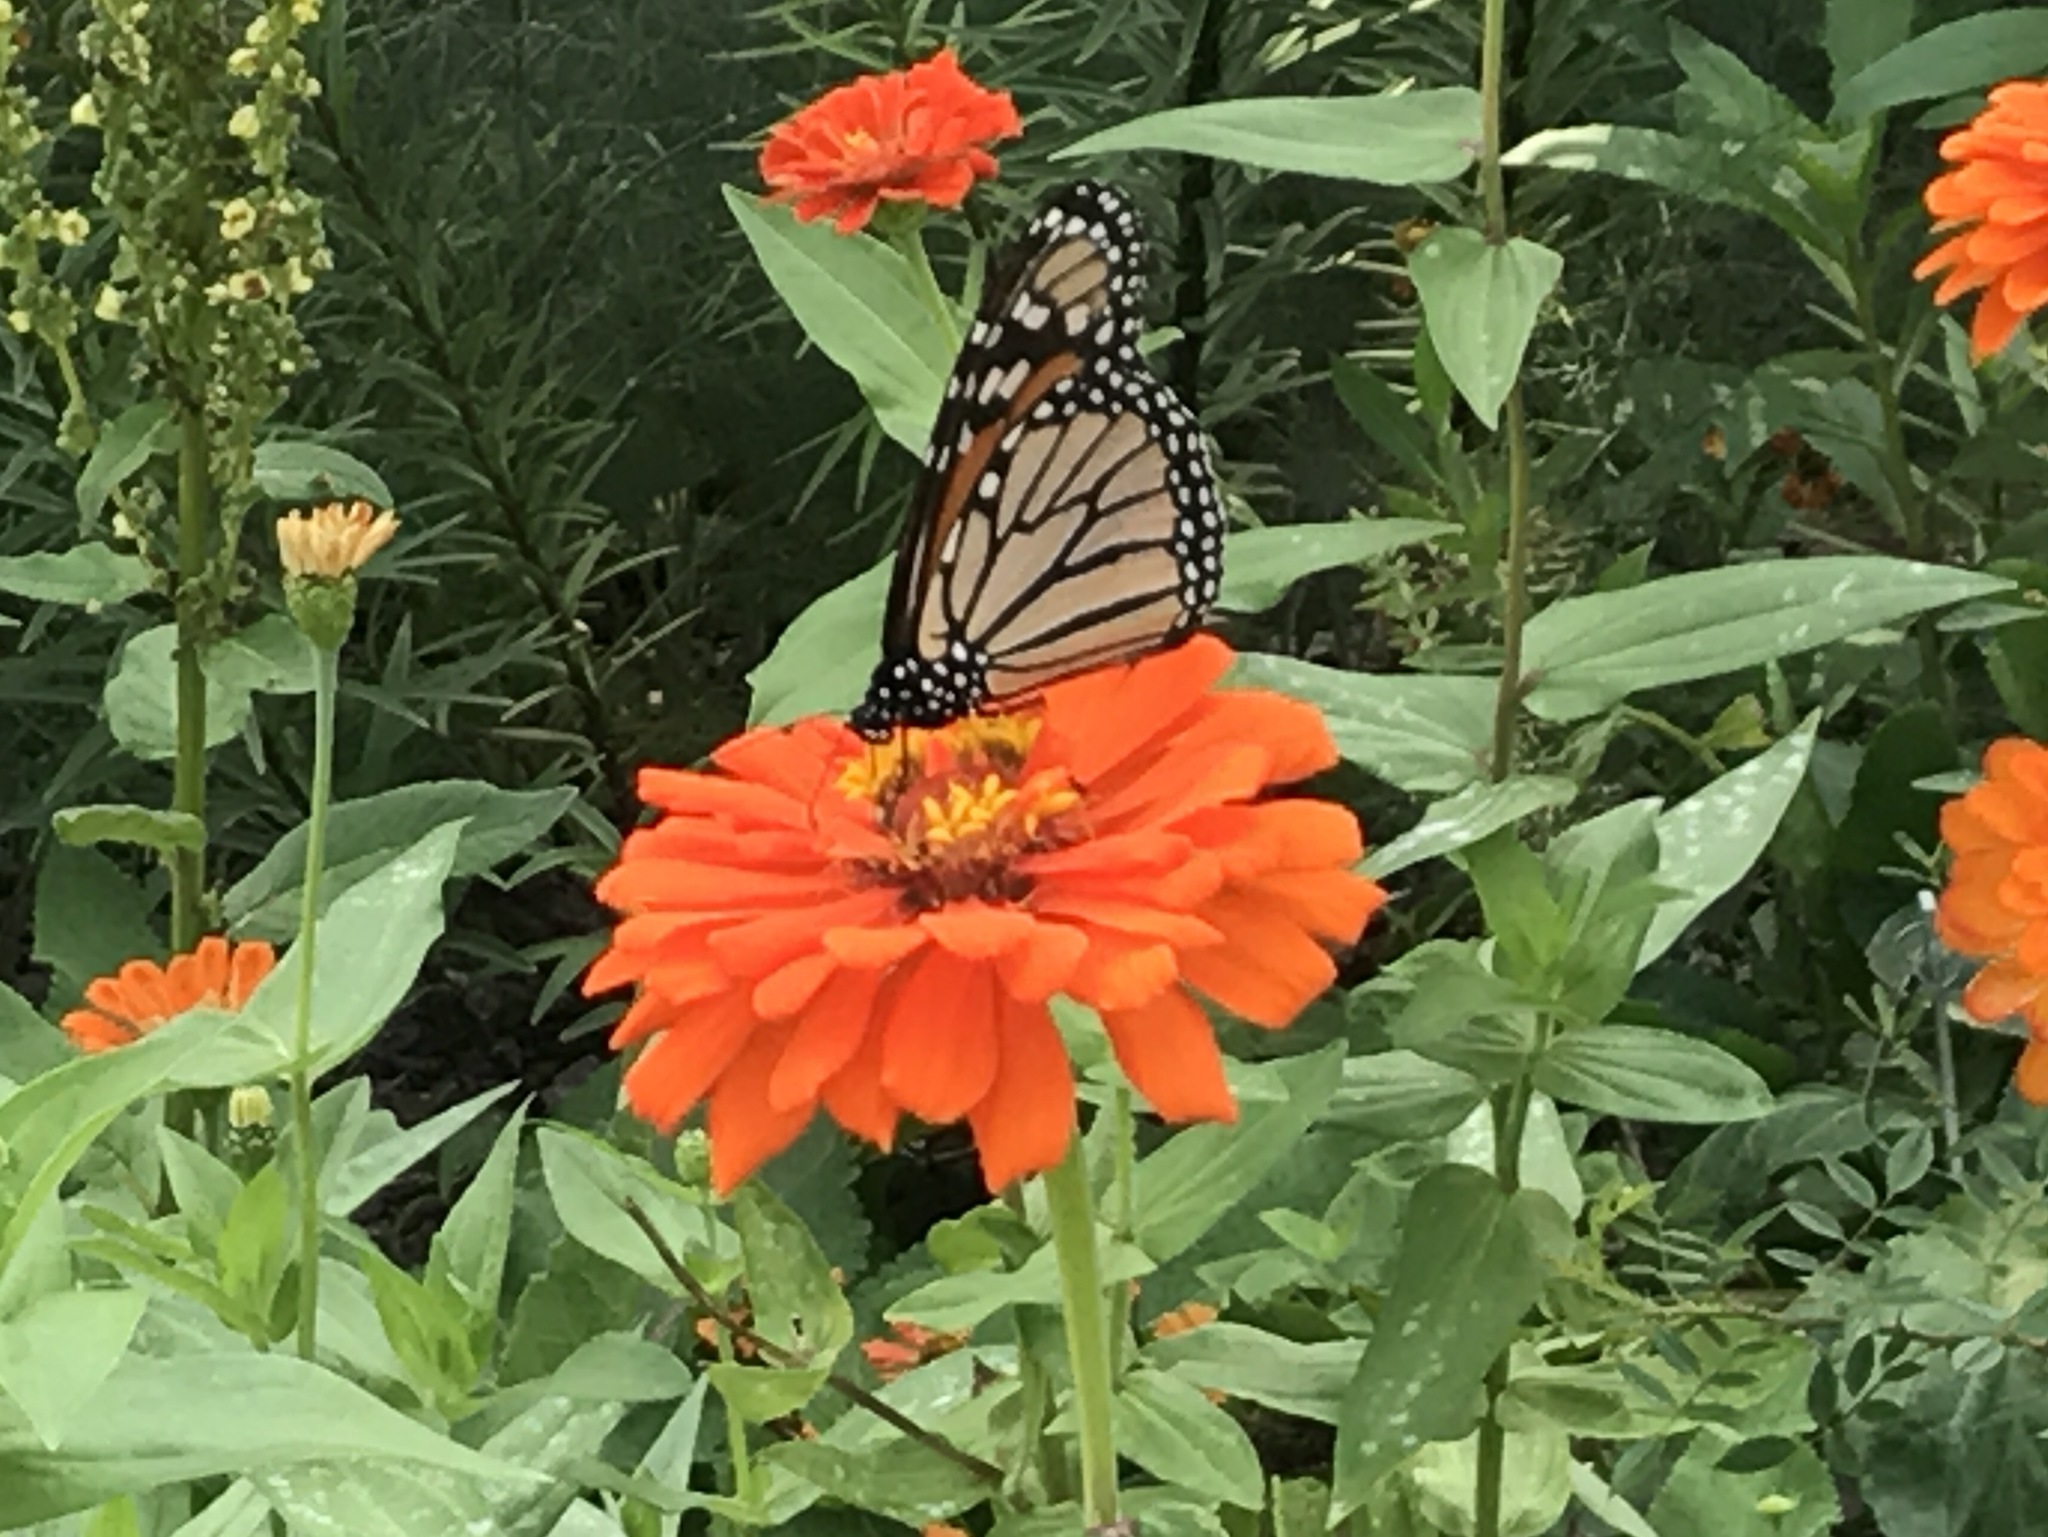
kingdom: Animalia
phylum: Arthropoda
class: Insecta
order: Lepidoptera
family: Nymphalidae
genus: Danaus
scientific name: Danaus plexippus
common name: Monarch
